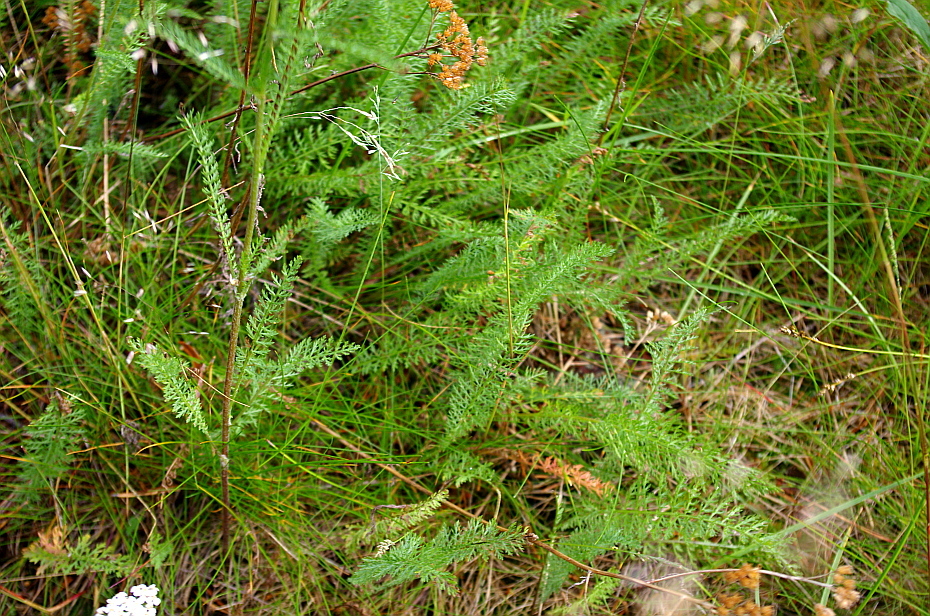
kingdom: Plantae
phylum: Tracheophyta
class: Magnoliopsida
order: Asterales
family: Asteraceae
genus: Achillea
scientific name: Achillea millefolium
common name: Yarrow
